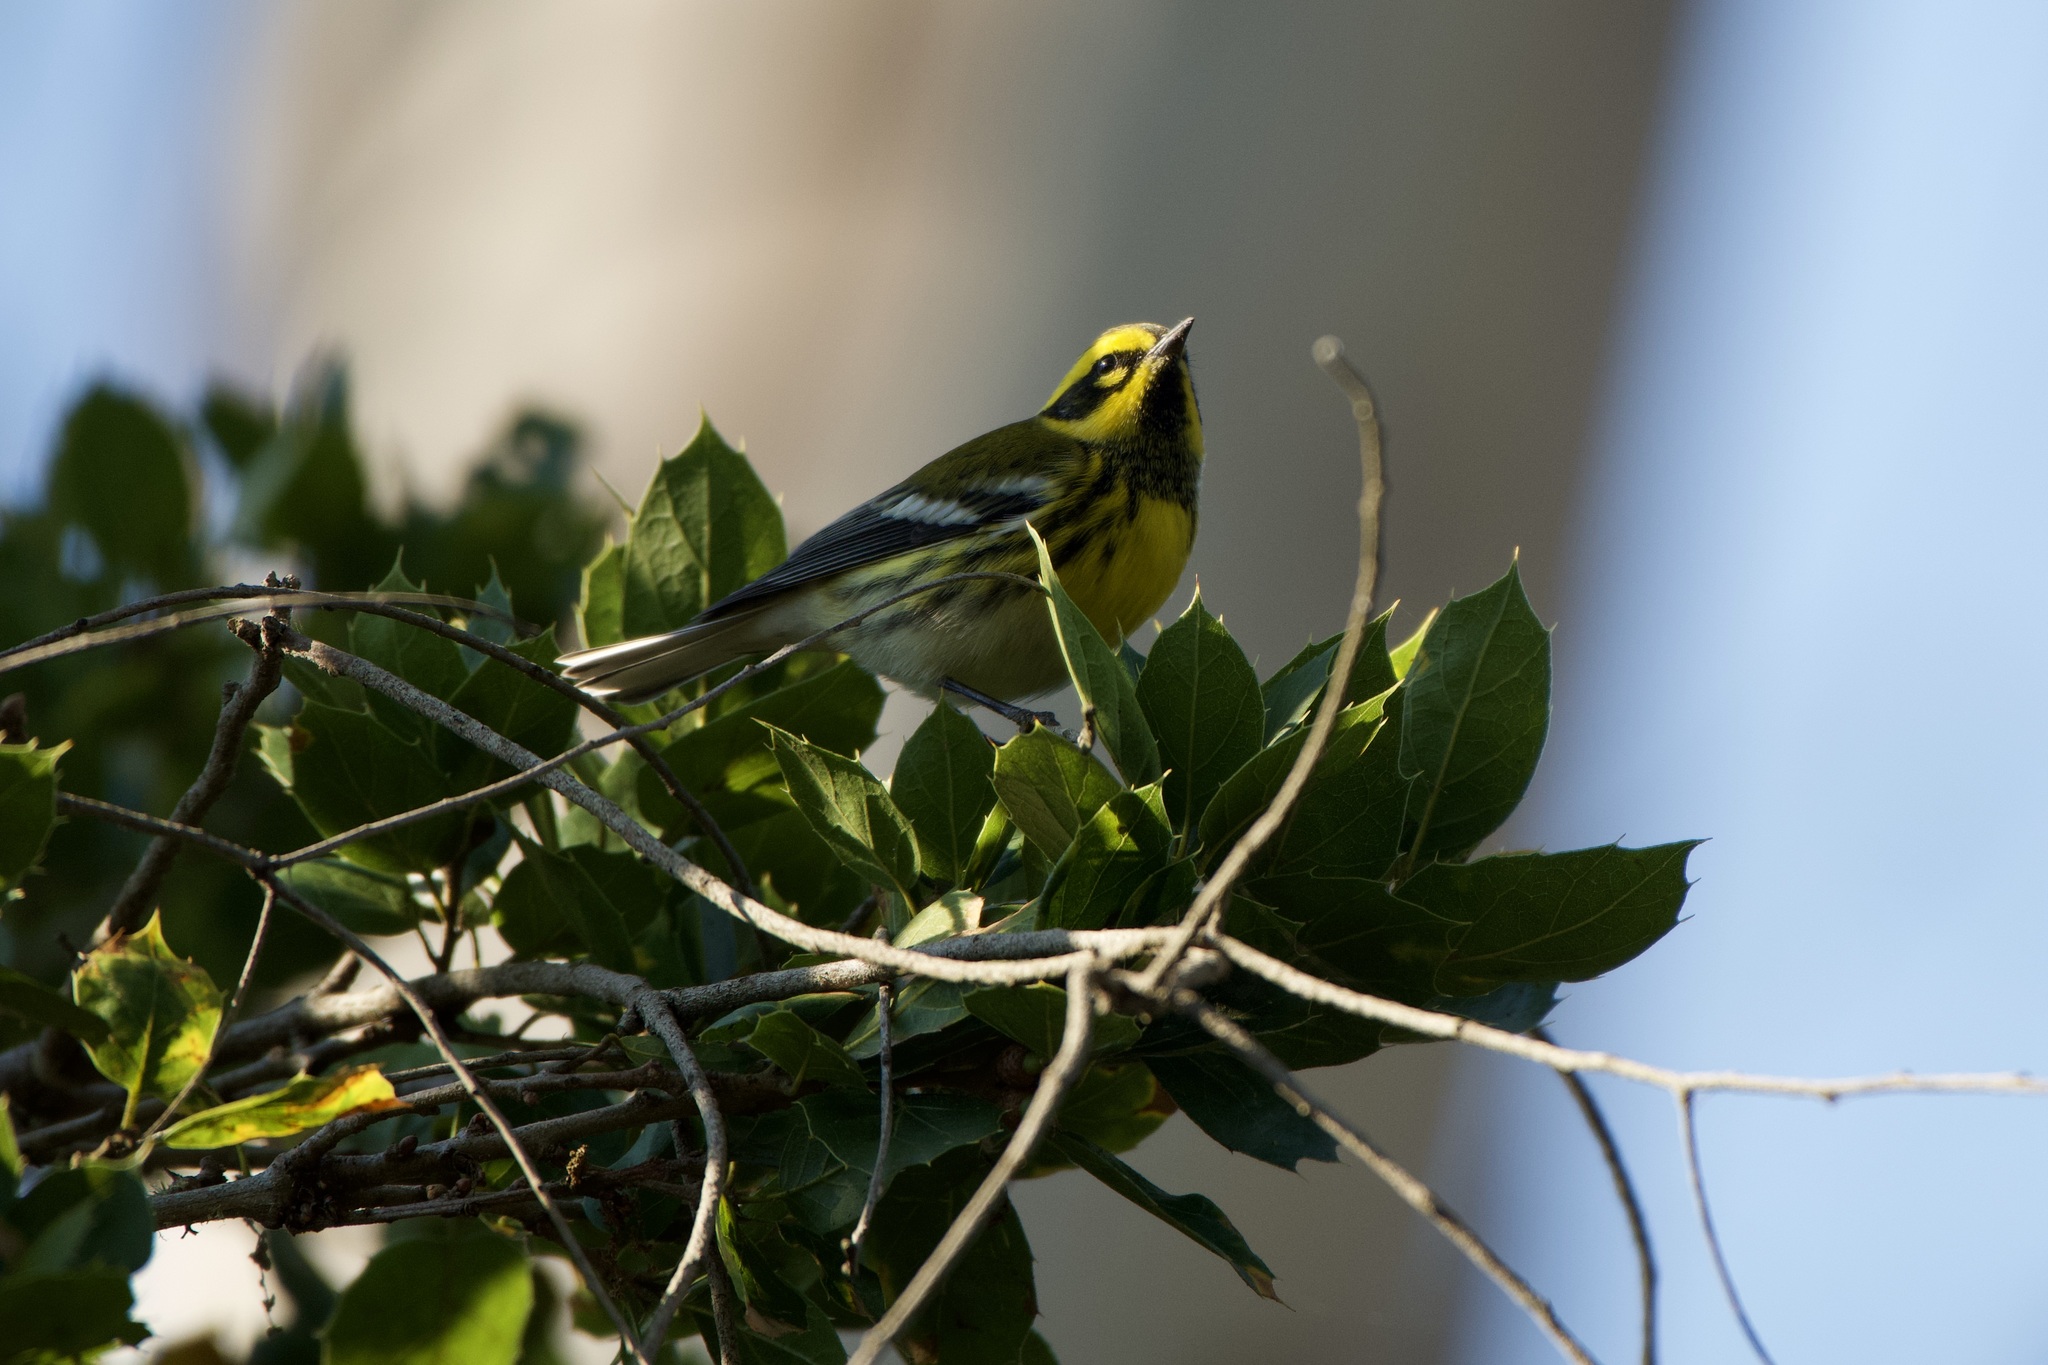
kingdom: Animalia
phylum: Chordata
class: Aves
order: Passeriformes
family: Parulidae
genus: Setophaga
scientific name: Setophaga townsendi
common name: Townsend's warbler
